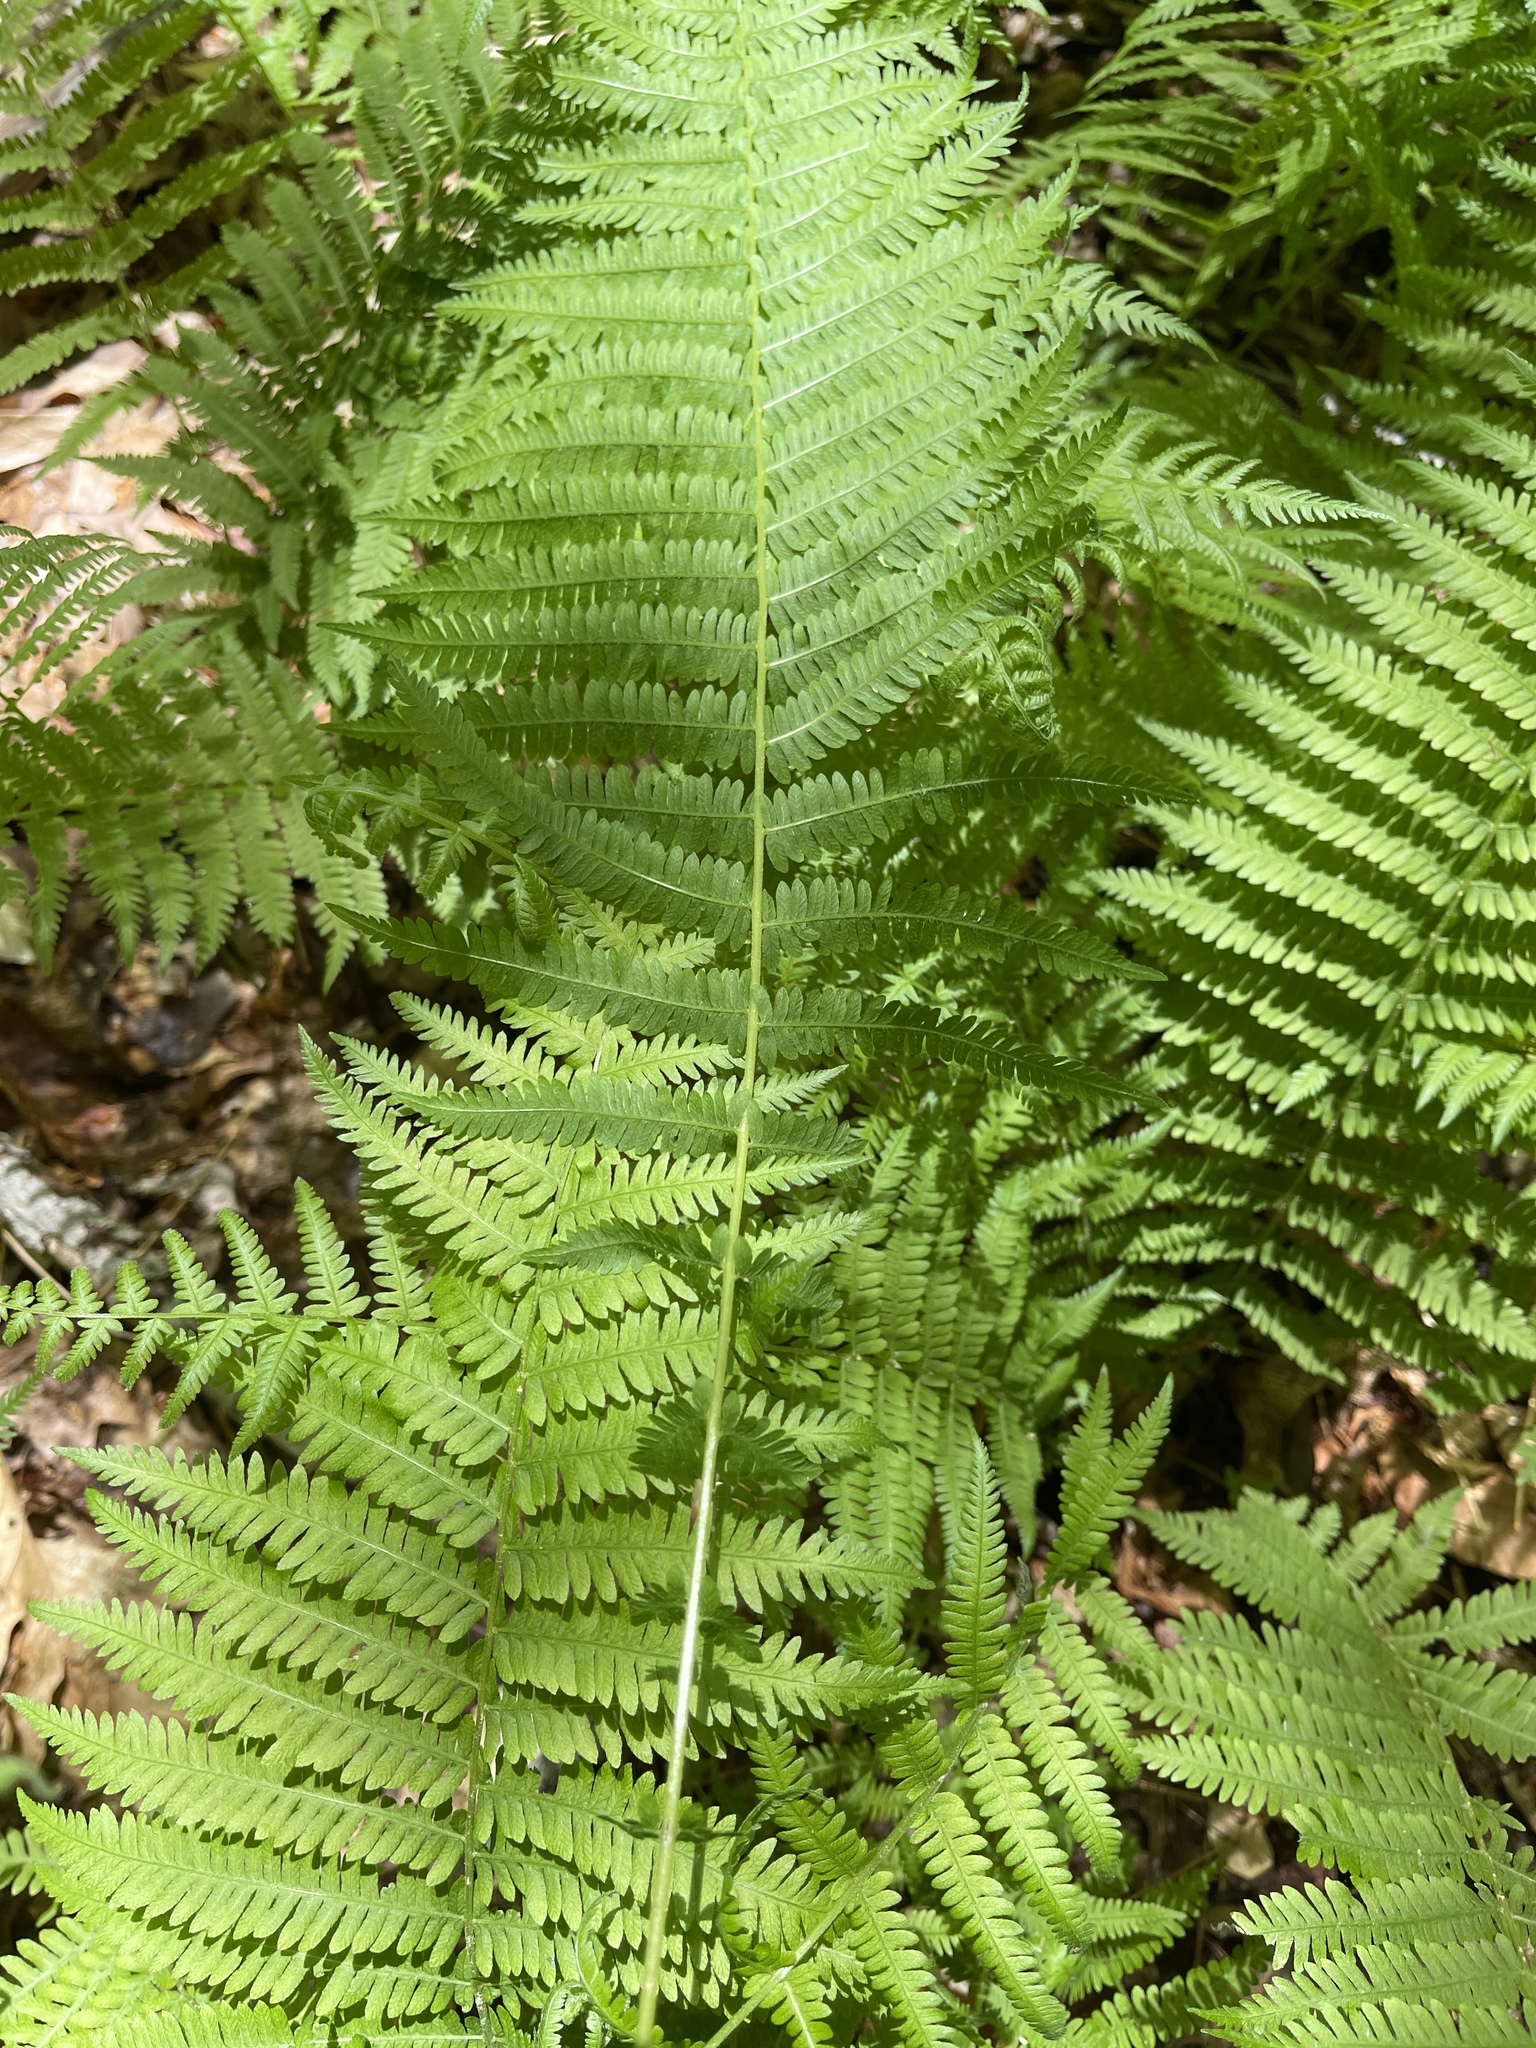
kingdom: Plantae
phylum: Tracheophyta
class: Polypodiopsida
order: Polypodiales
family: Thelypteridaceae
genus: Amauropelta
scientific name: Amauropelta noveboracensis
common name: New york fern
